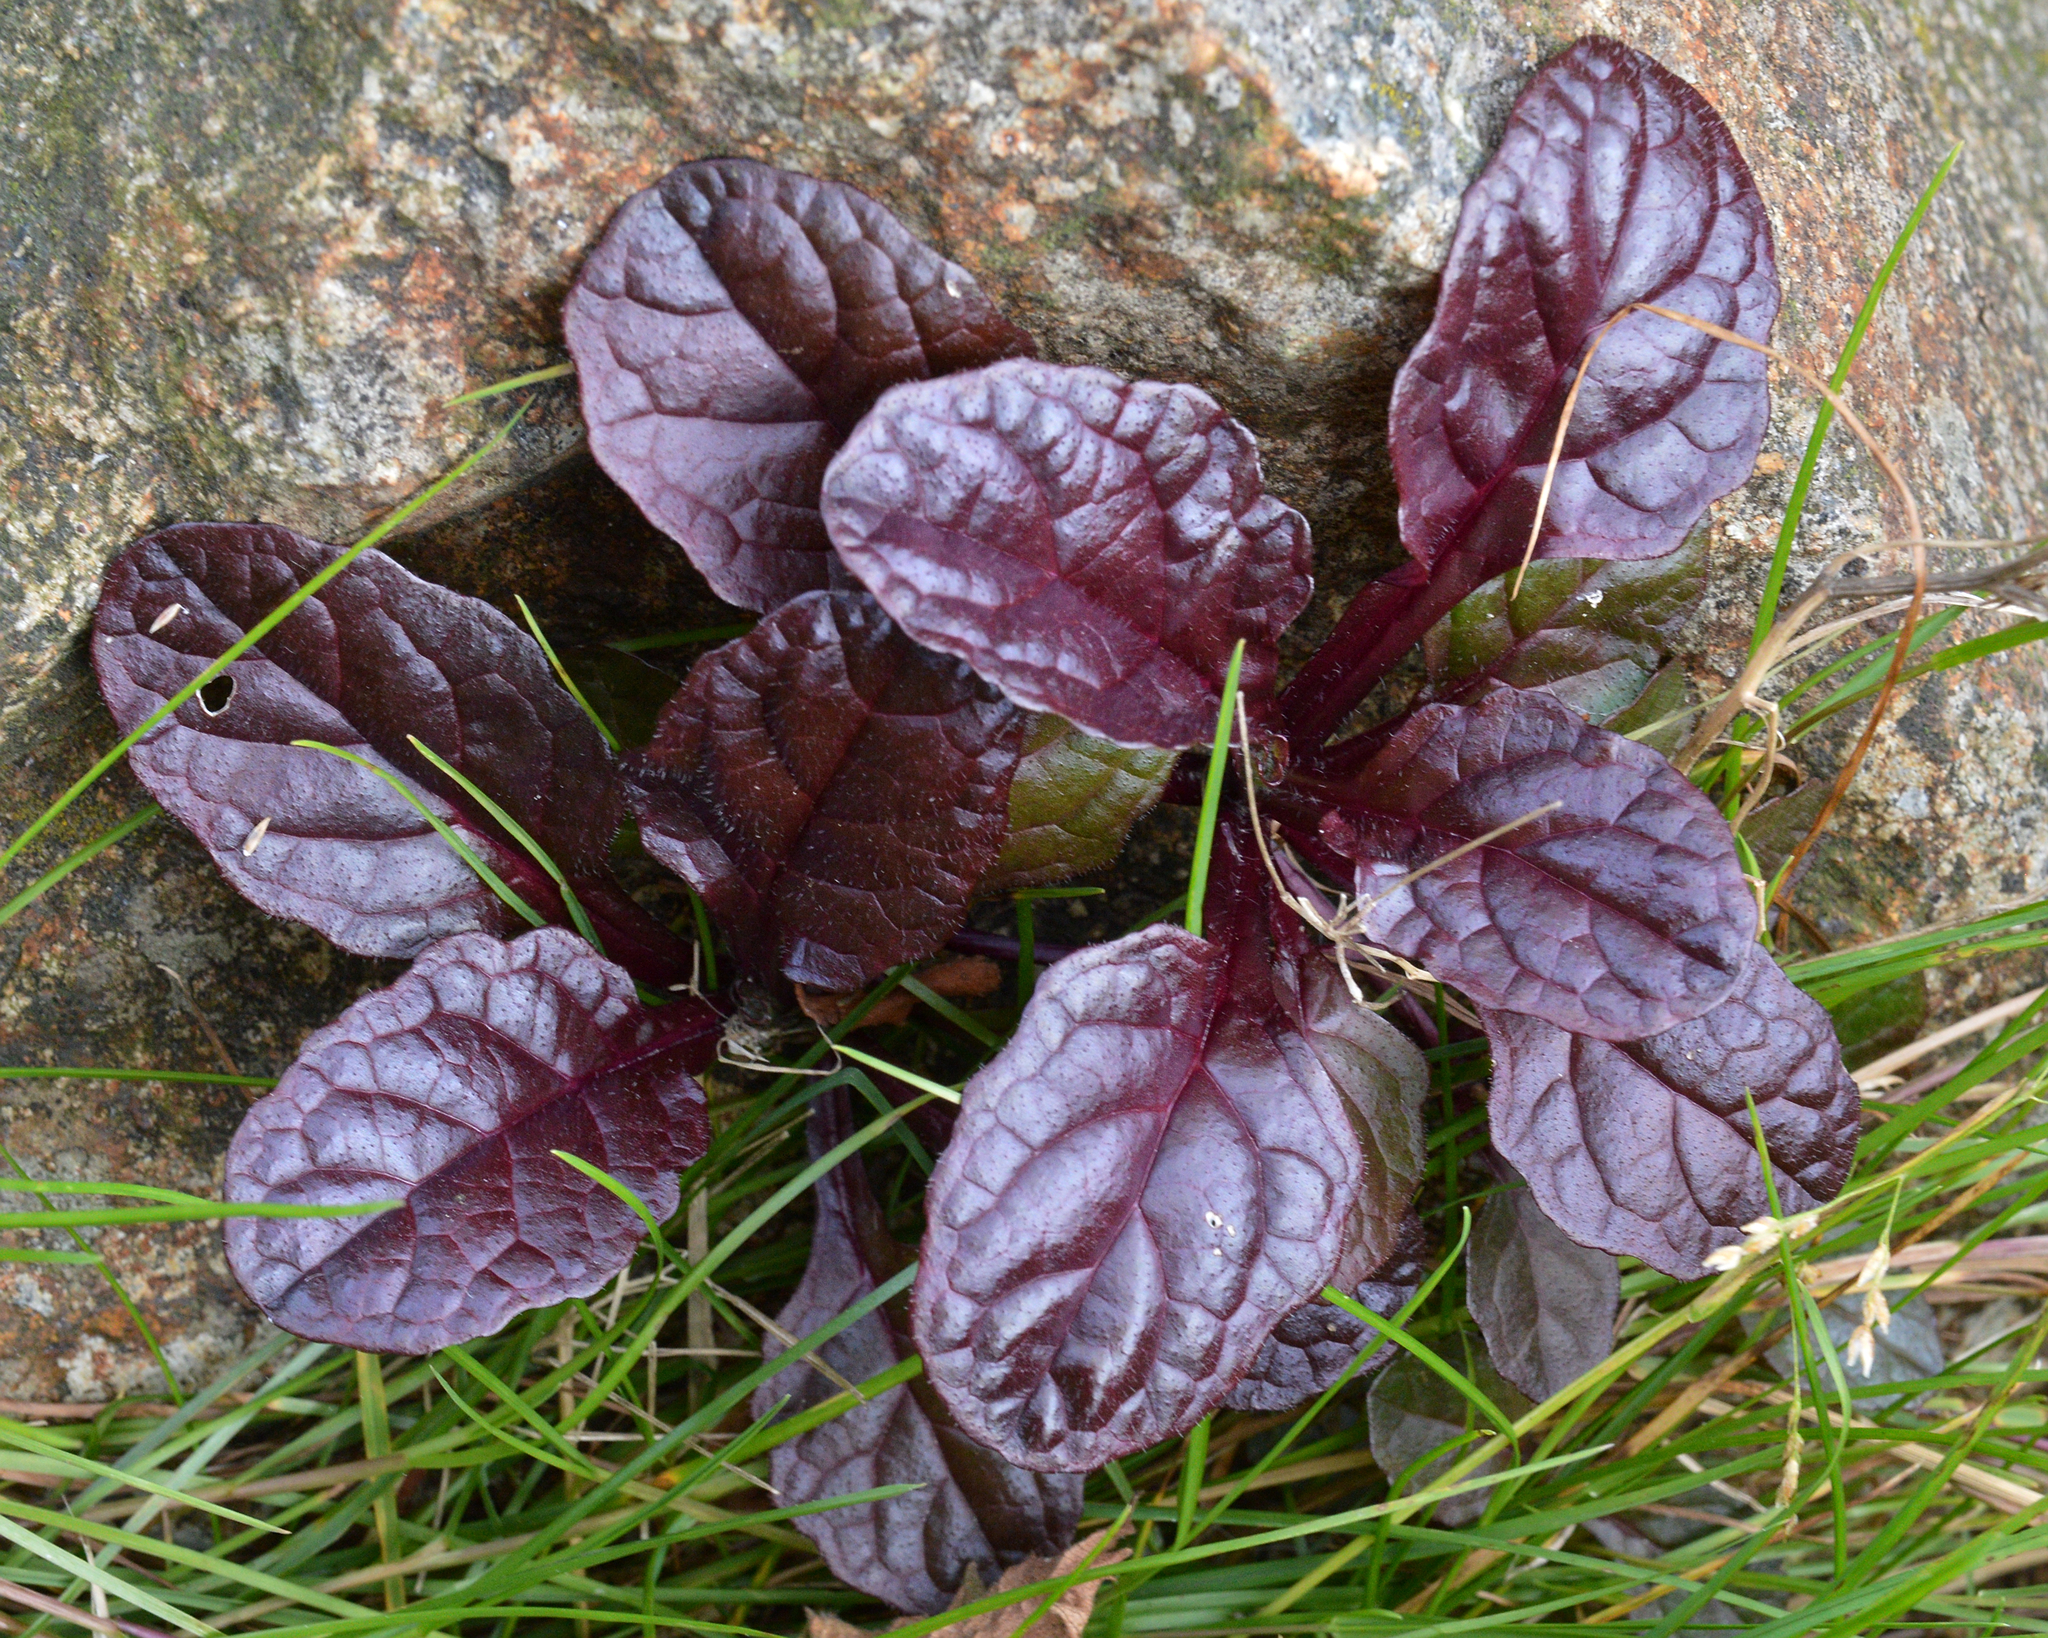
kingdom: Plantae
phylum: Tracheophyta
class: Magnoliopsida
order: Lamiales
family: Lamiaceae
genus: Ajuga
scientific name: Ajuga reptans
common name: Bugle
